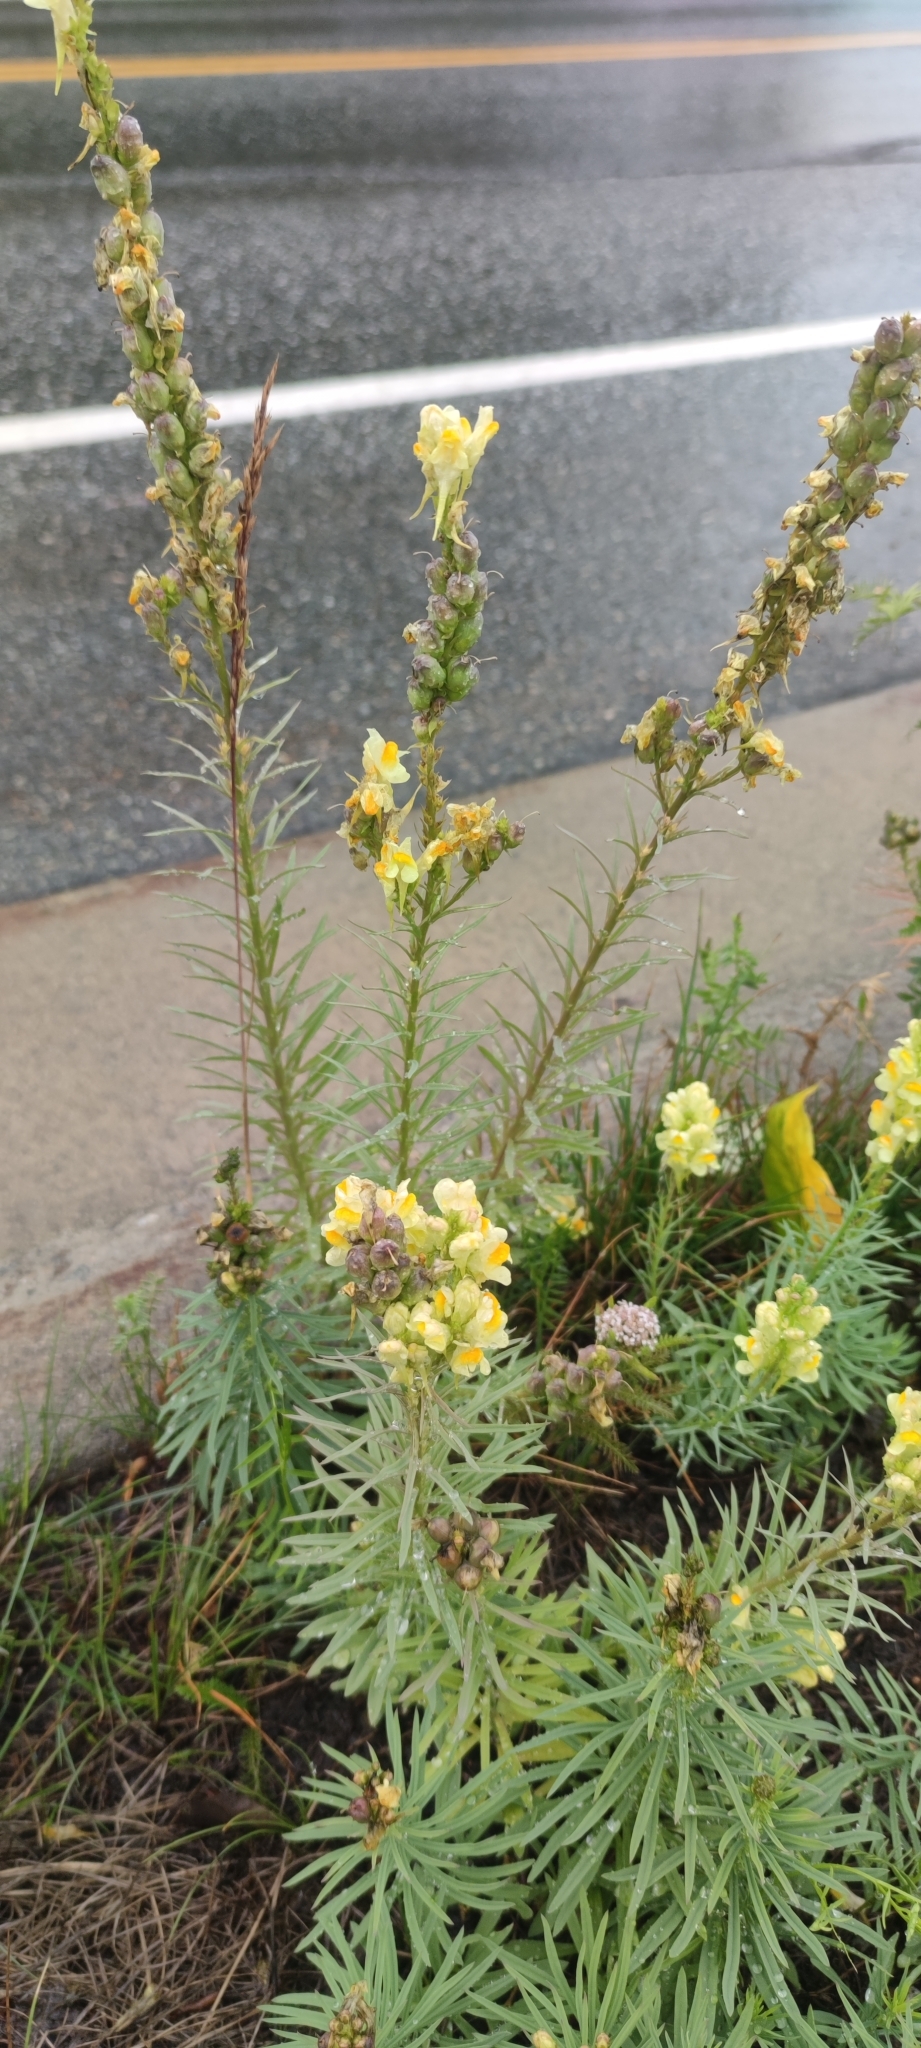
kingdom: Plantae
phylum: Tracheophyta
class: Magnoliopsida
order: Lamiales
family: Plantaginaceae
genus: Linaria
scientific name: Linaria vulgaris
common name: Butter and eggs
